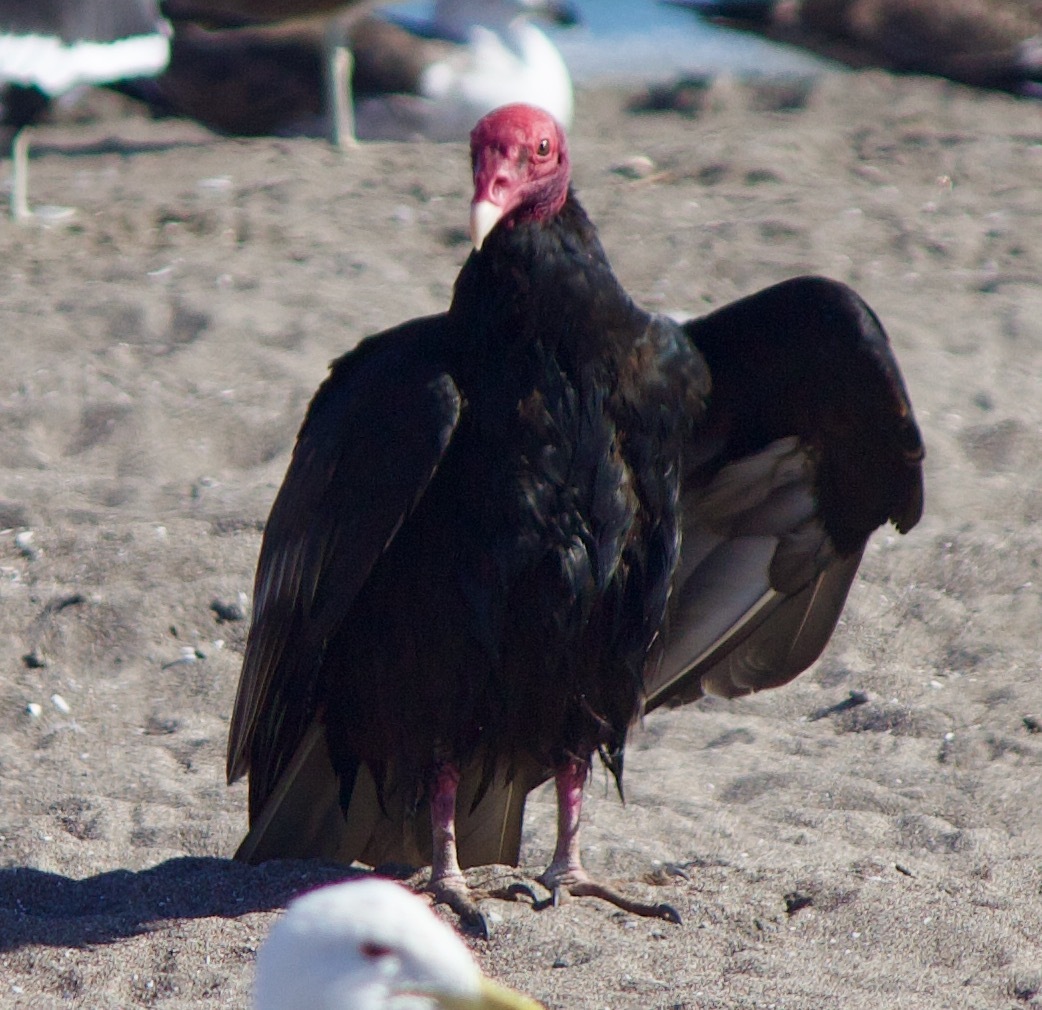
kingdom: Animalia
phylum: Chordata
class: Aves
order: Accipitriformes
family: Cathartidae
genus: Cathartes
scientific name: Cathartes aura
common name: Turkey vulture
